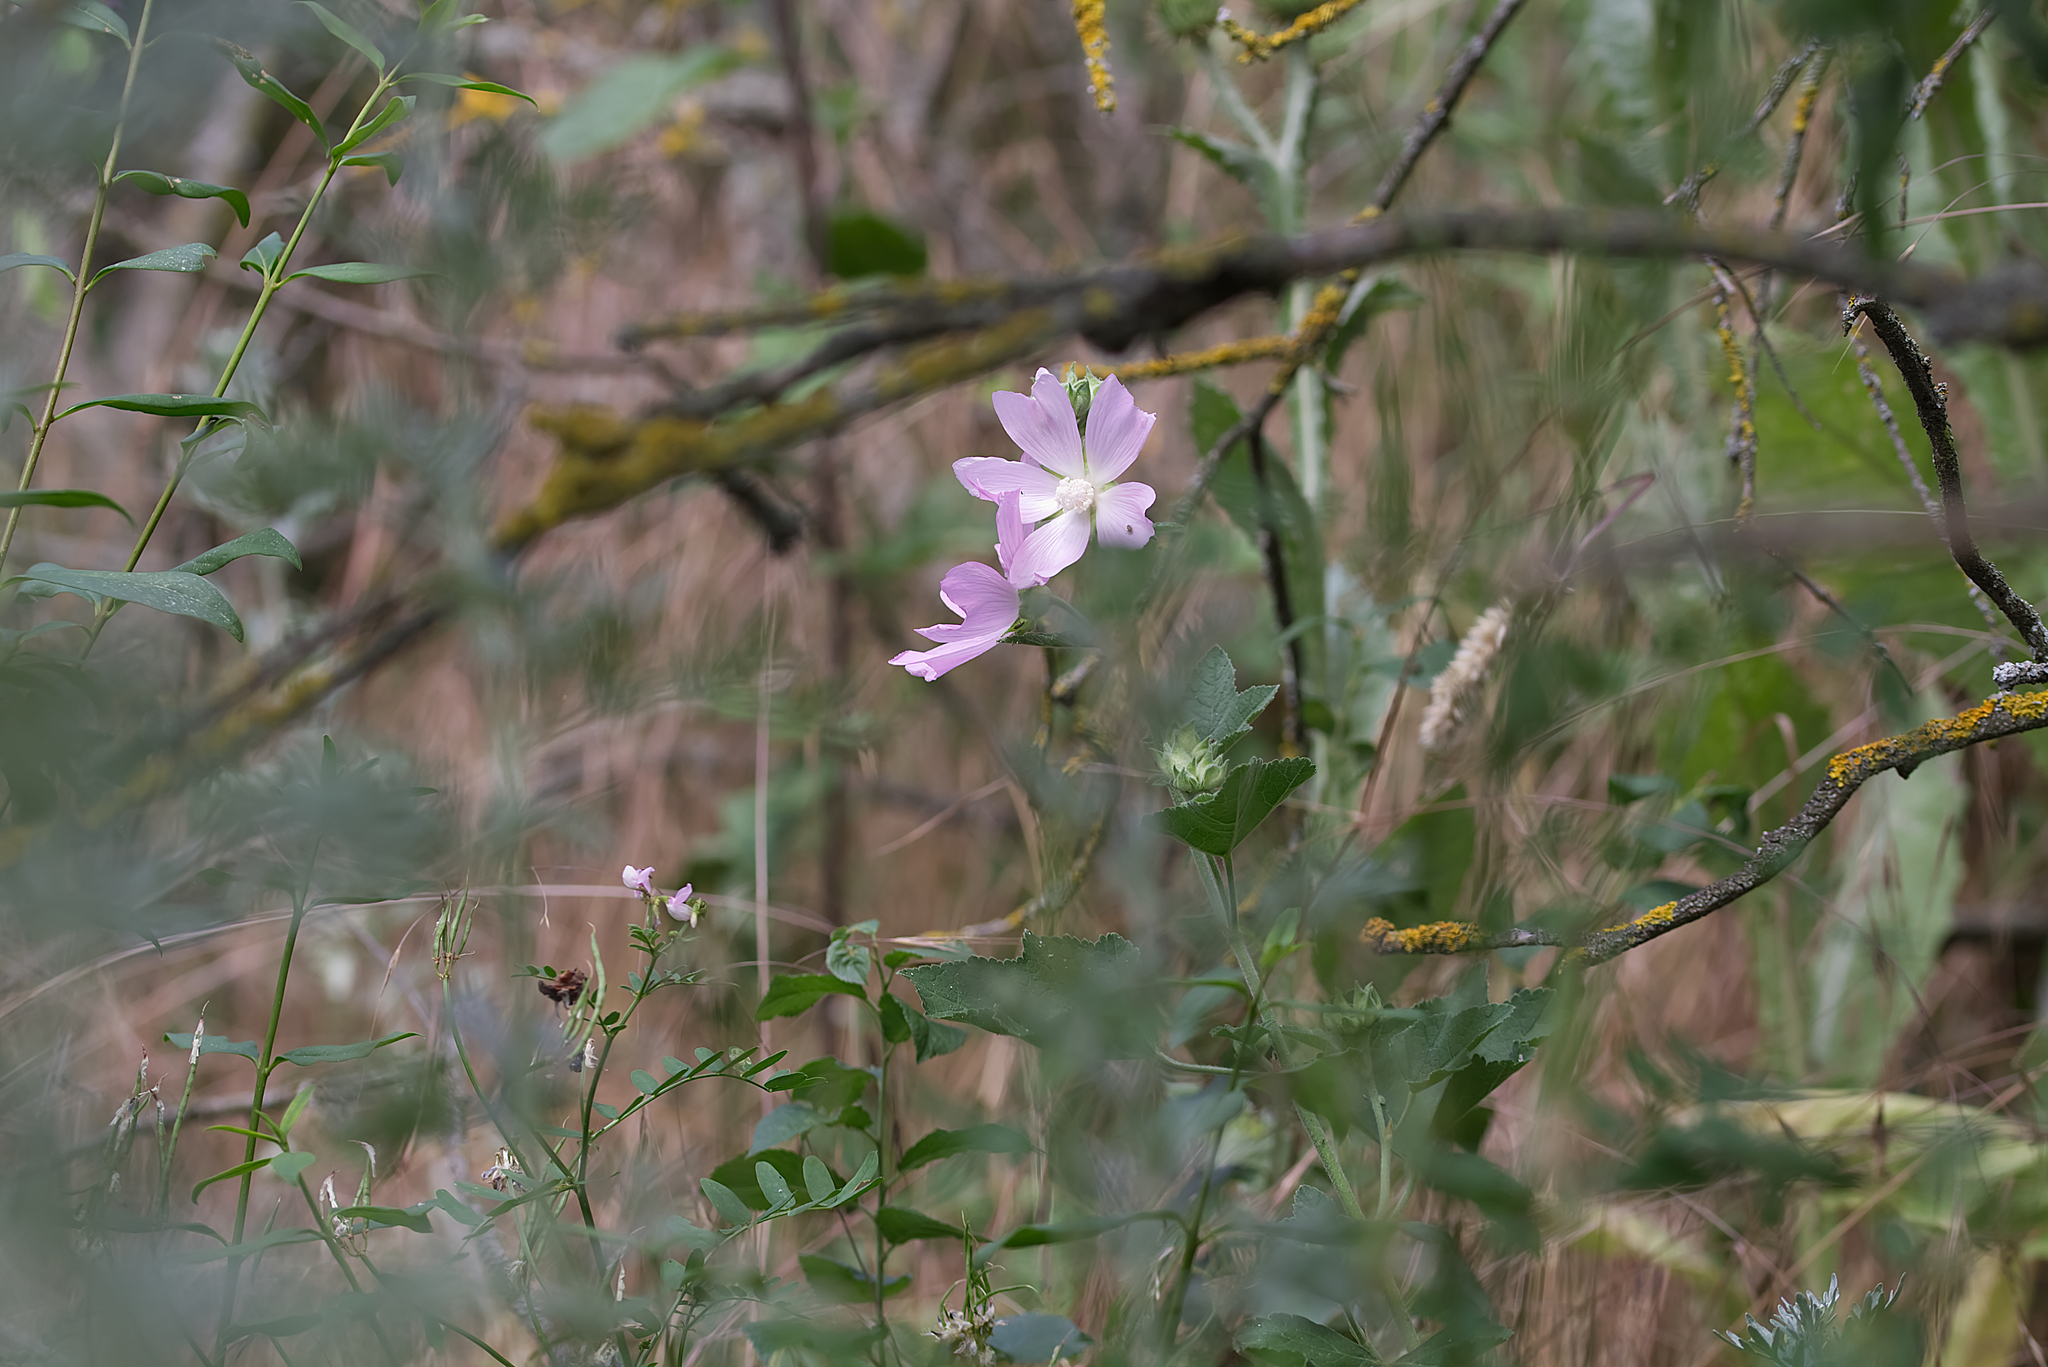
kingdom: Plantae
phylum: Tracheophyta
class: Magnoliopsida
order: Malvales
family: Malvaceae
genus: Malva
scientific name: Malva thuringiaca
